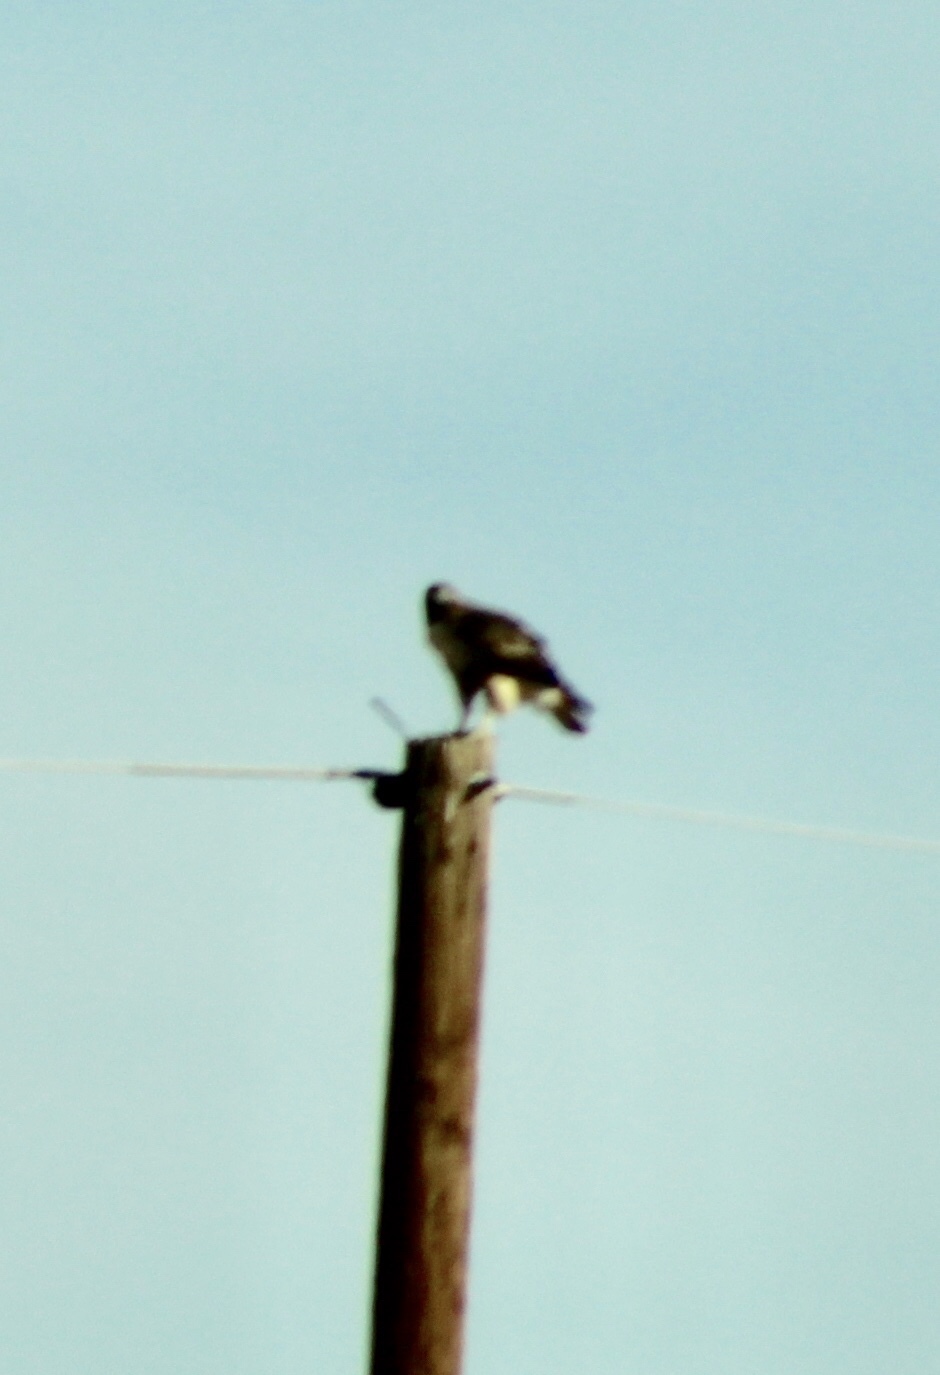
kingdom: Animalia
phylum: Chordata
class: Aves
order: Accipitriformes
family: Accipitridae
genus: Buteo
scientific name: Buteo jamaicensis
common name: Red-tailed hawk
